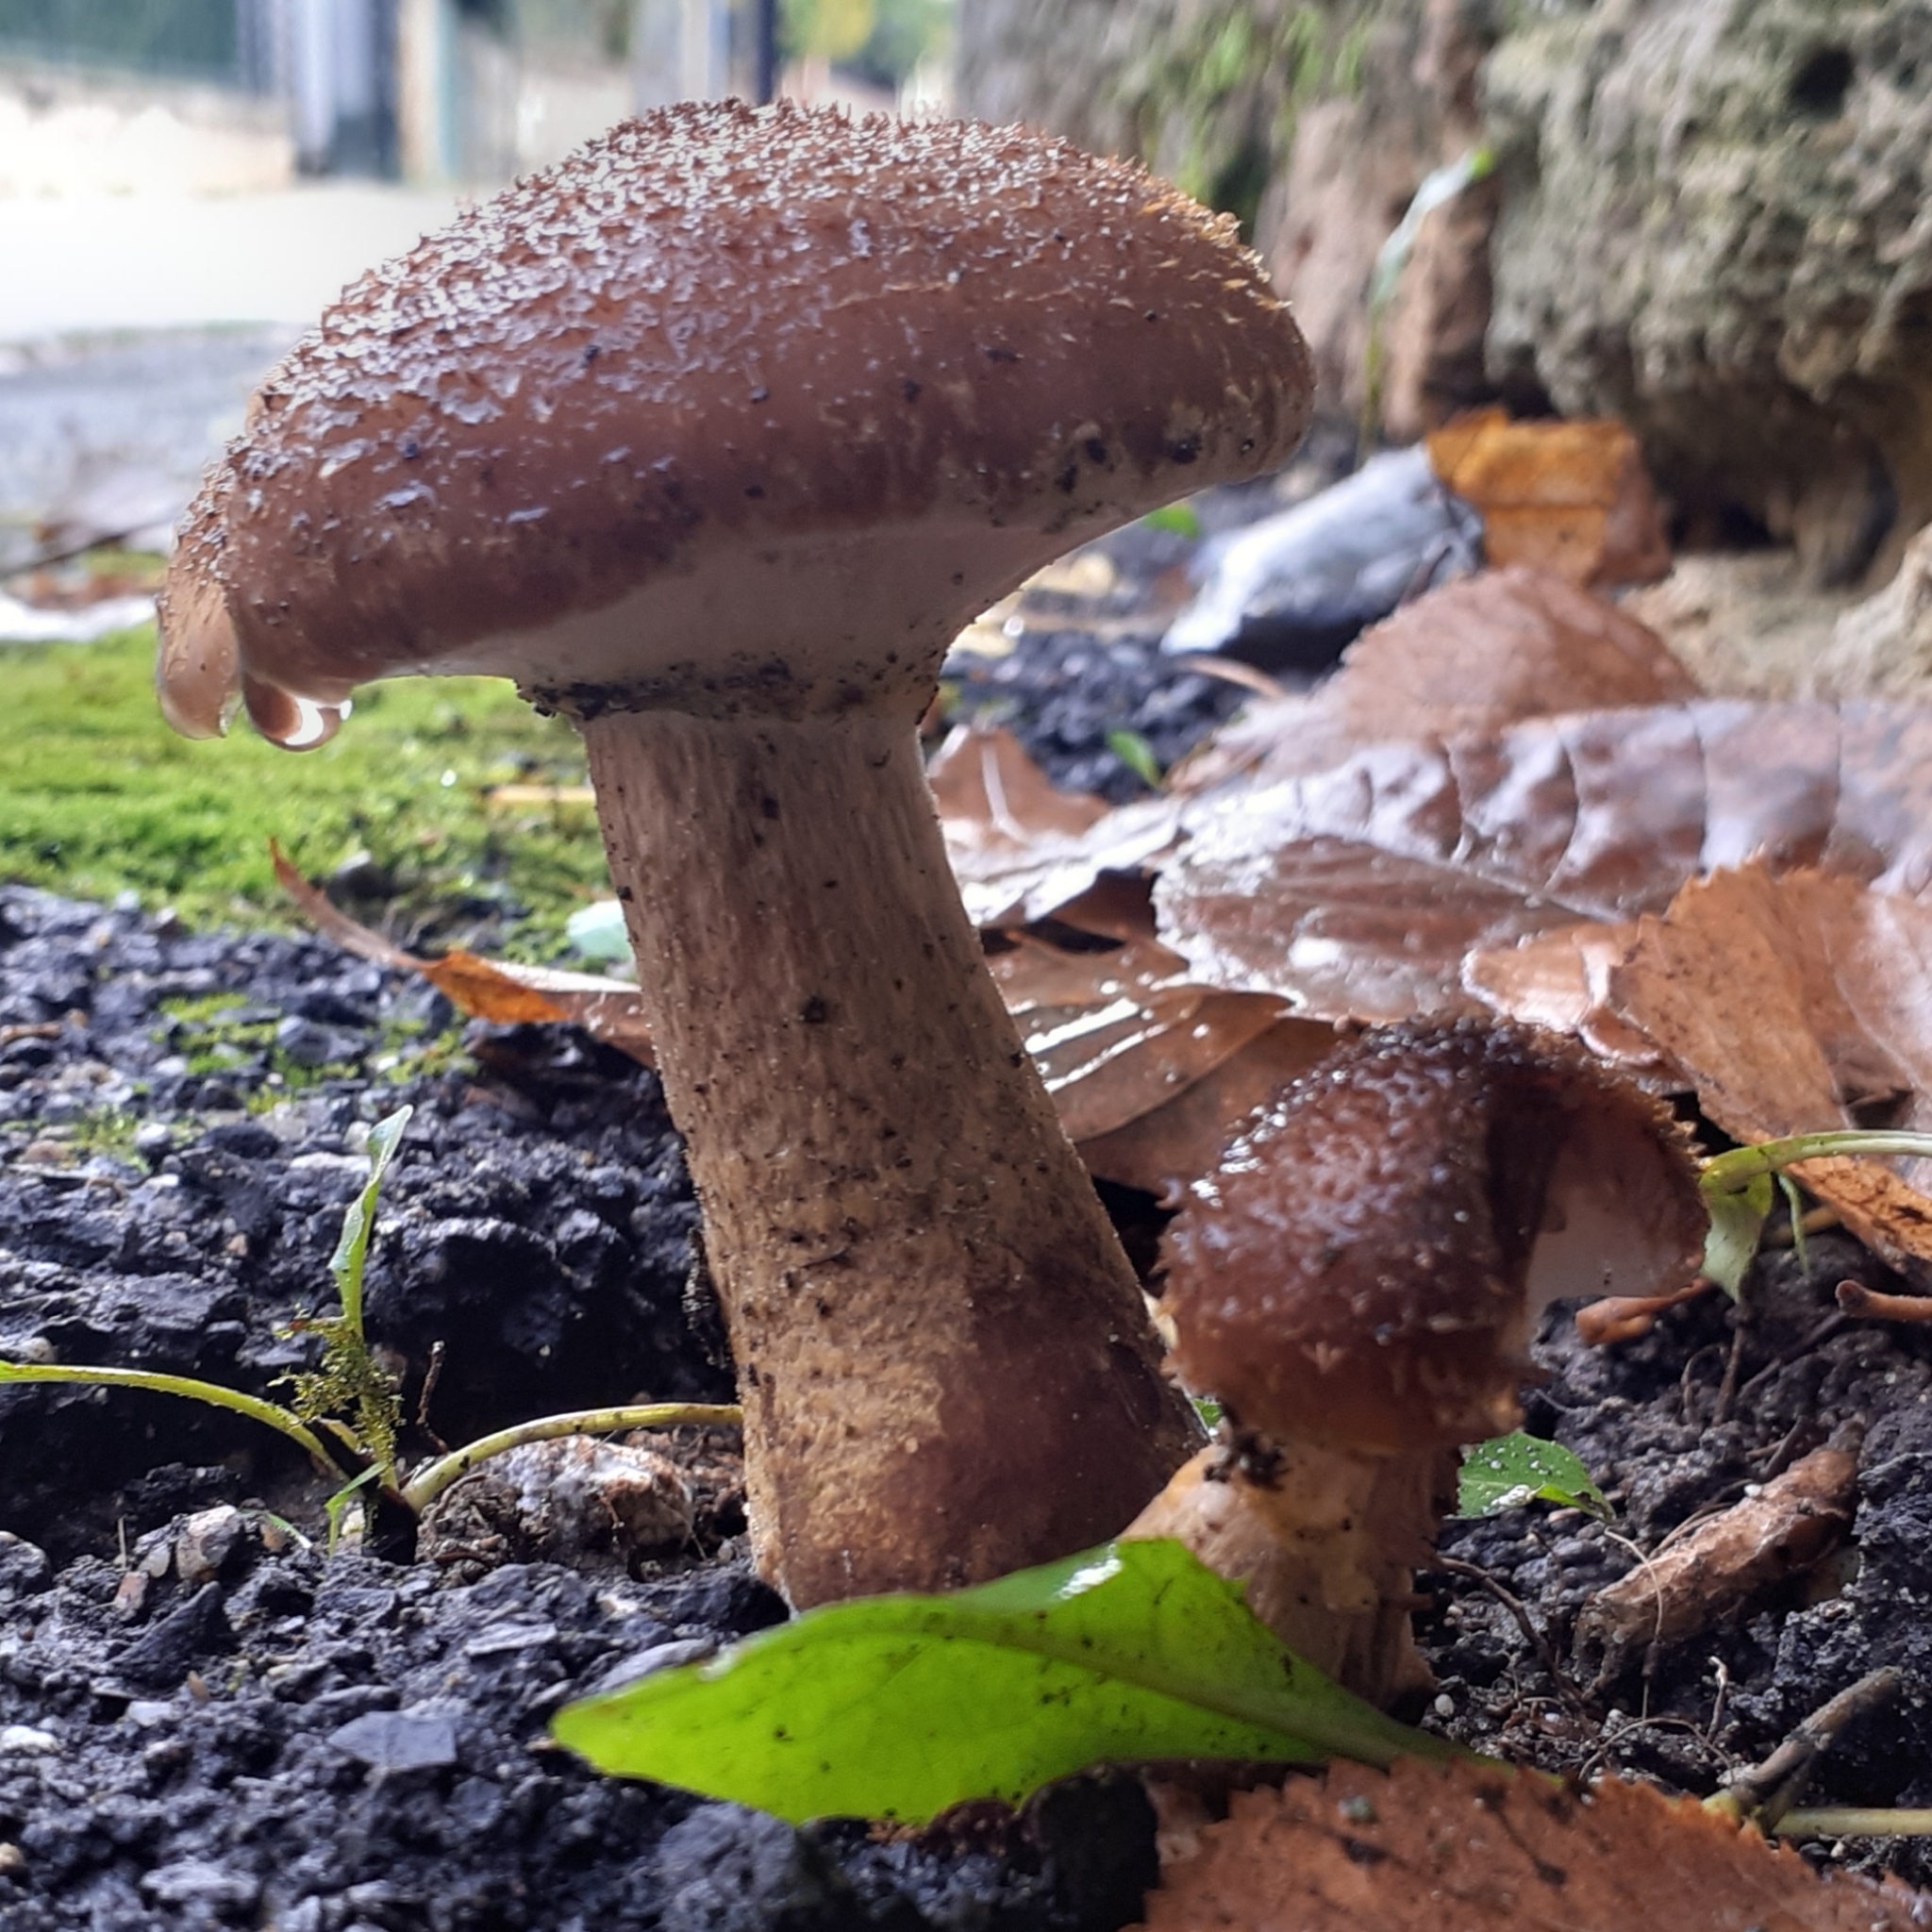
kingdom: Fungi
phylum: Basidiomycota
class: Agaricomycetes
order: Agaricales
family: Physalacriaceae
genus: Armillaria
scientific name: Armillaria gallica
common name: Bulbous honey fungus
